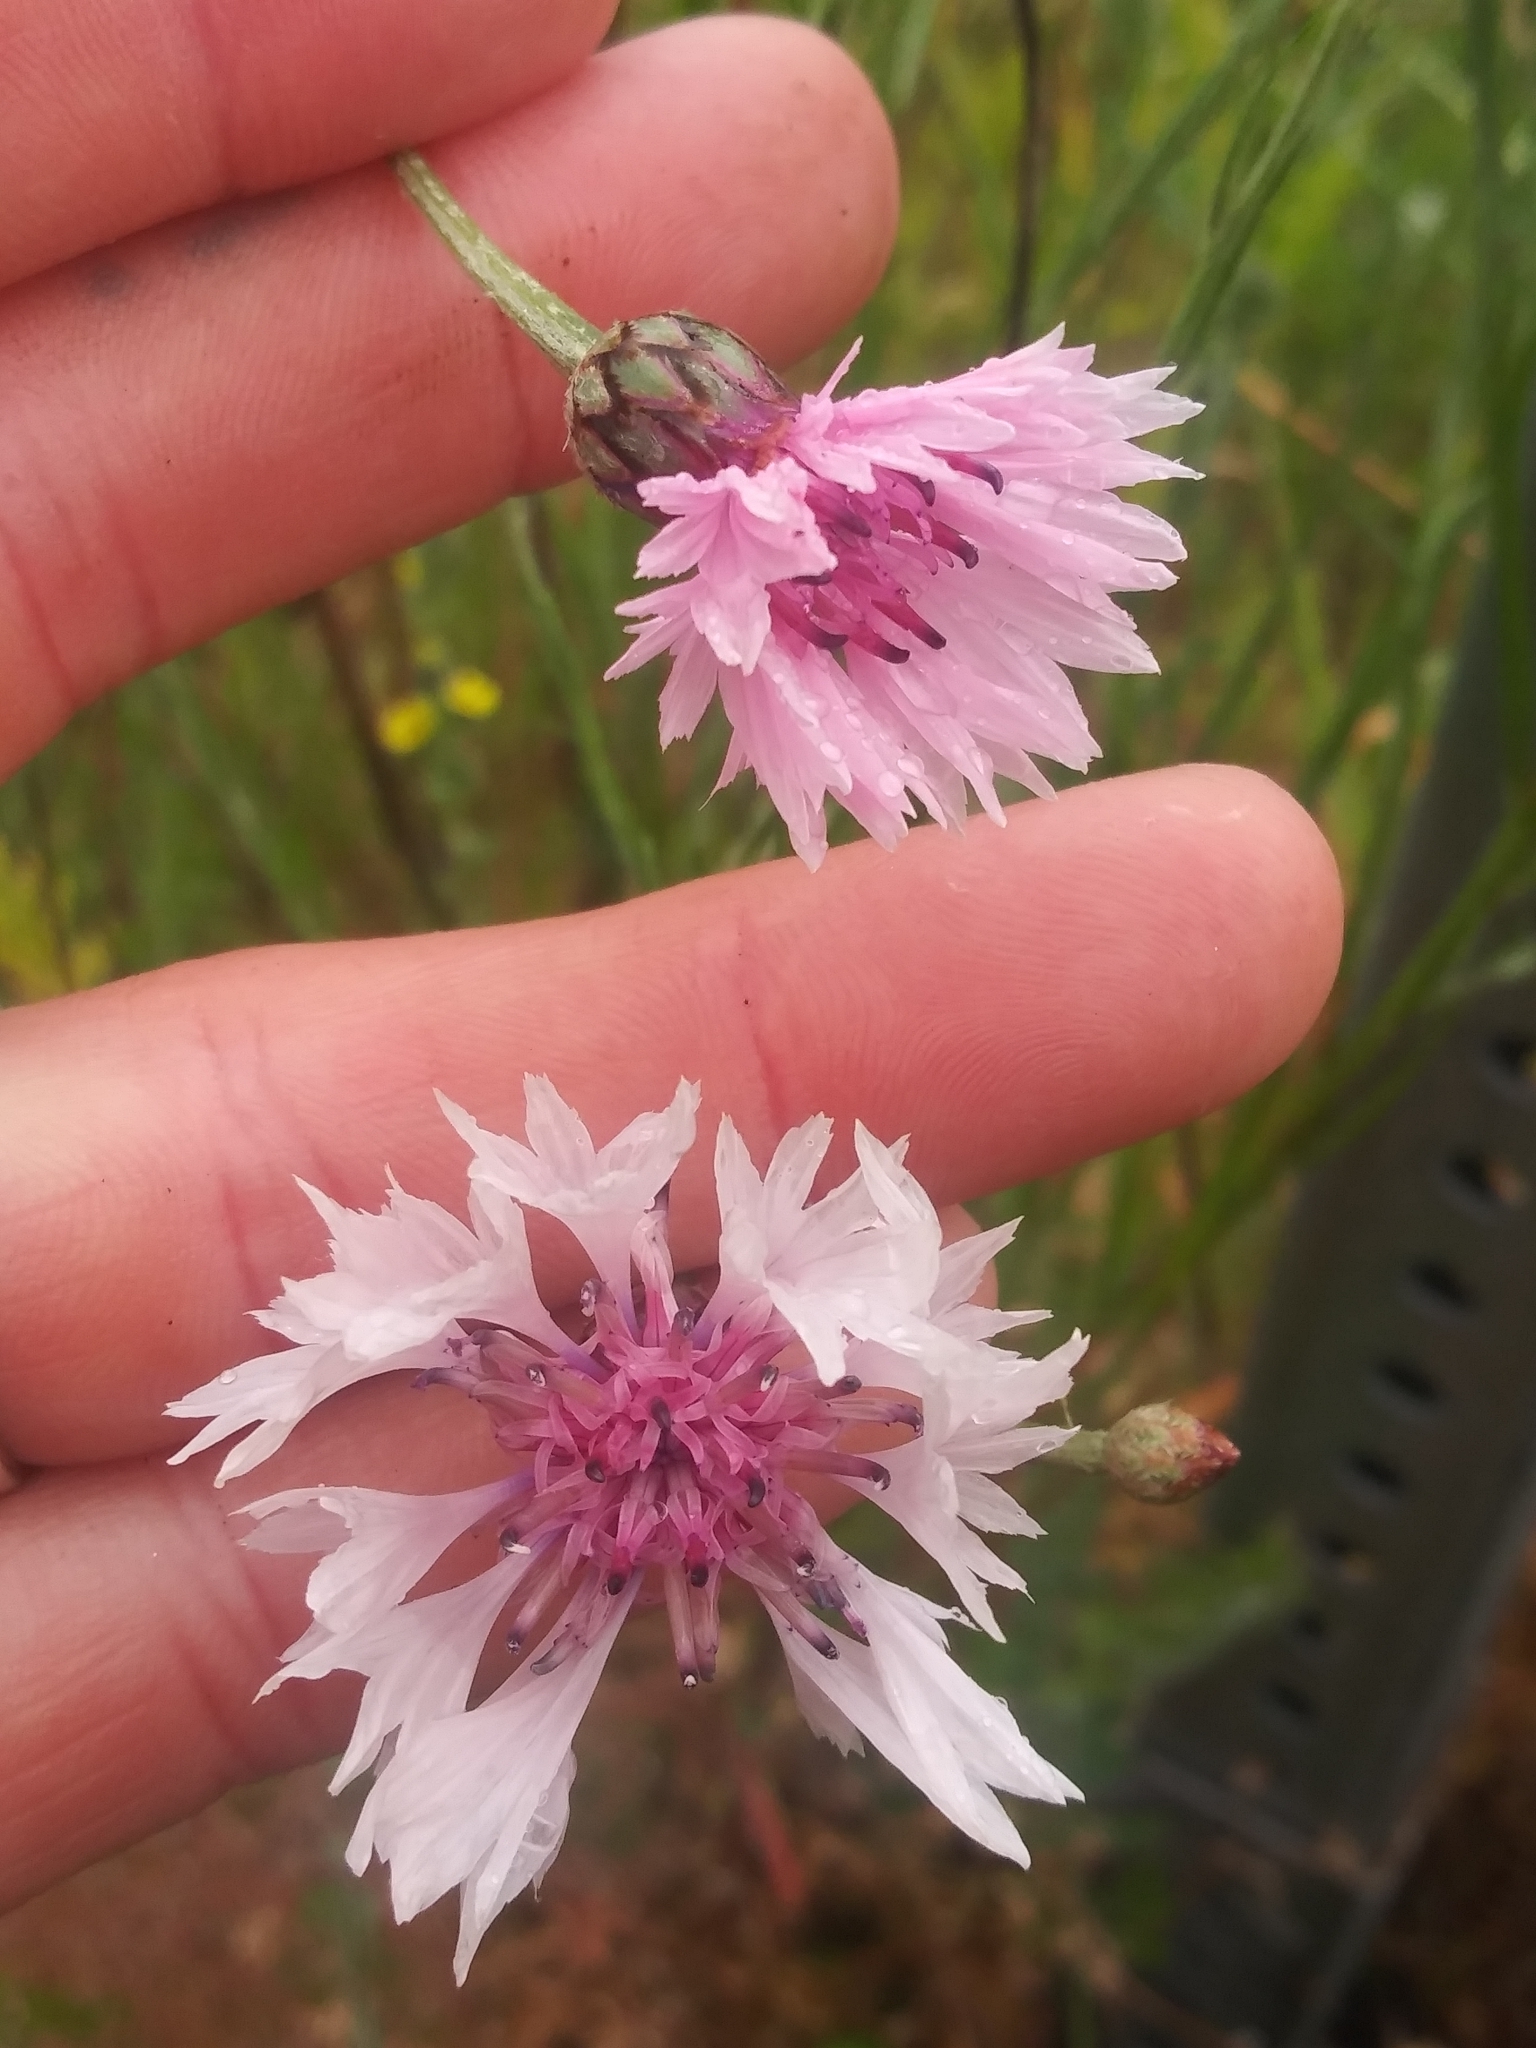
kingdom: Plantae
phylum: Tracheophyta
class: Magnoliopsida
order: Asterales
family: Asteraceae
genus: Centaurea
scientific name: Centaurea cyanus
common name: Cornflower
